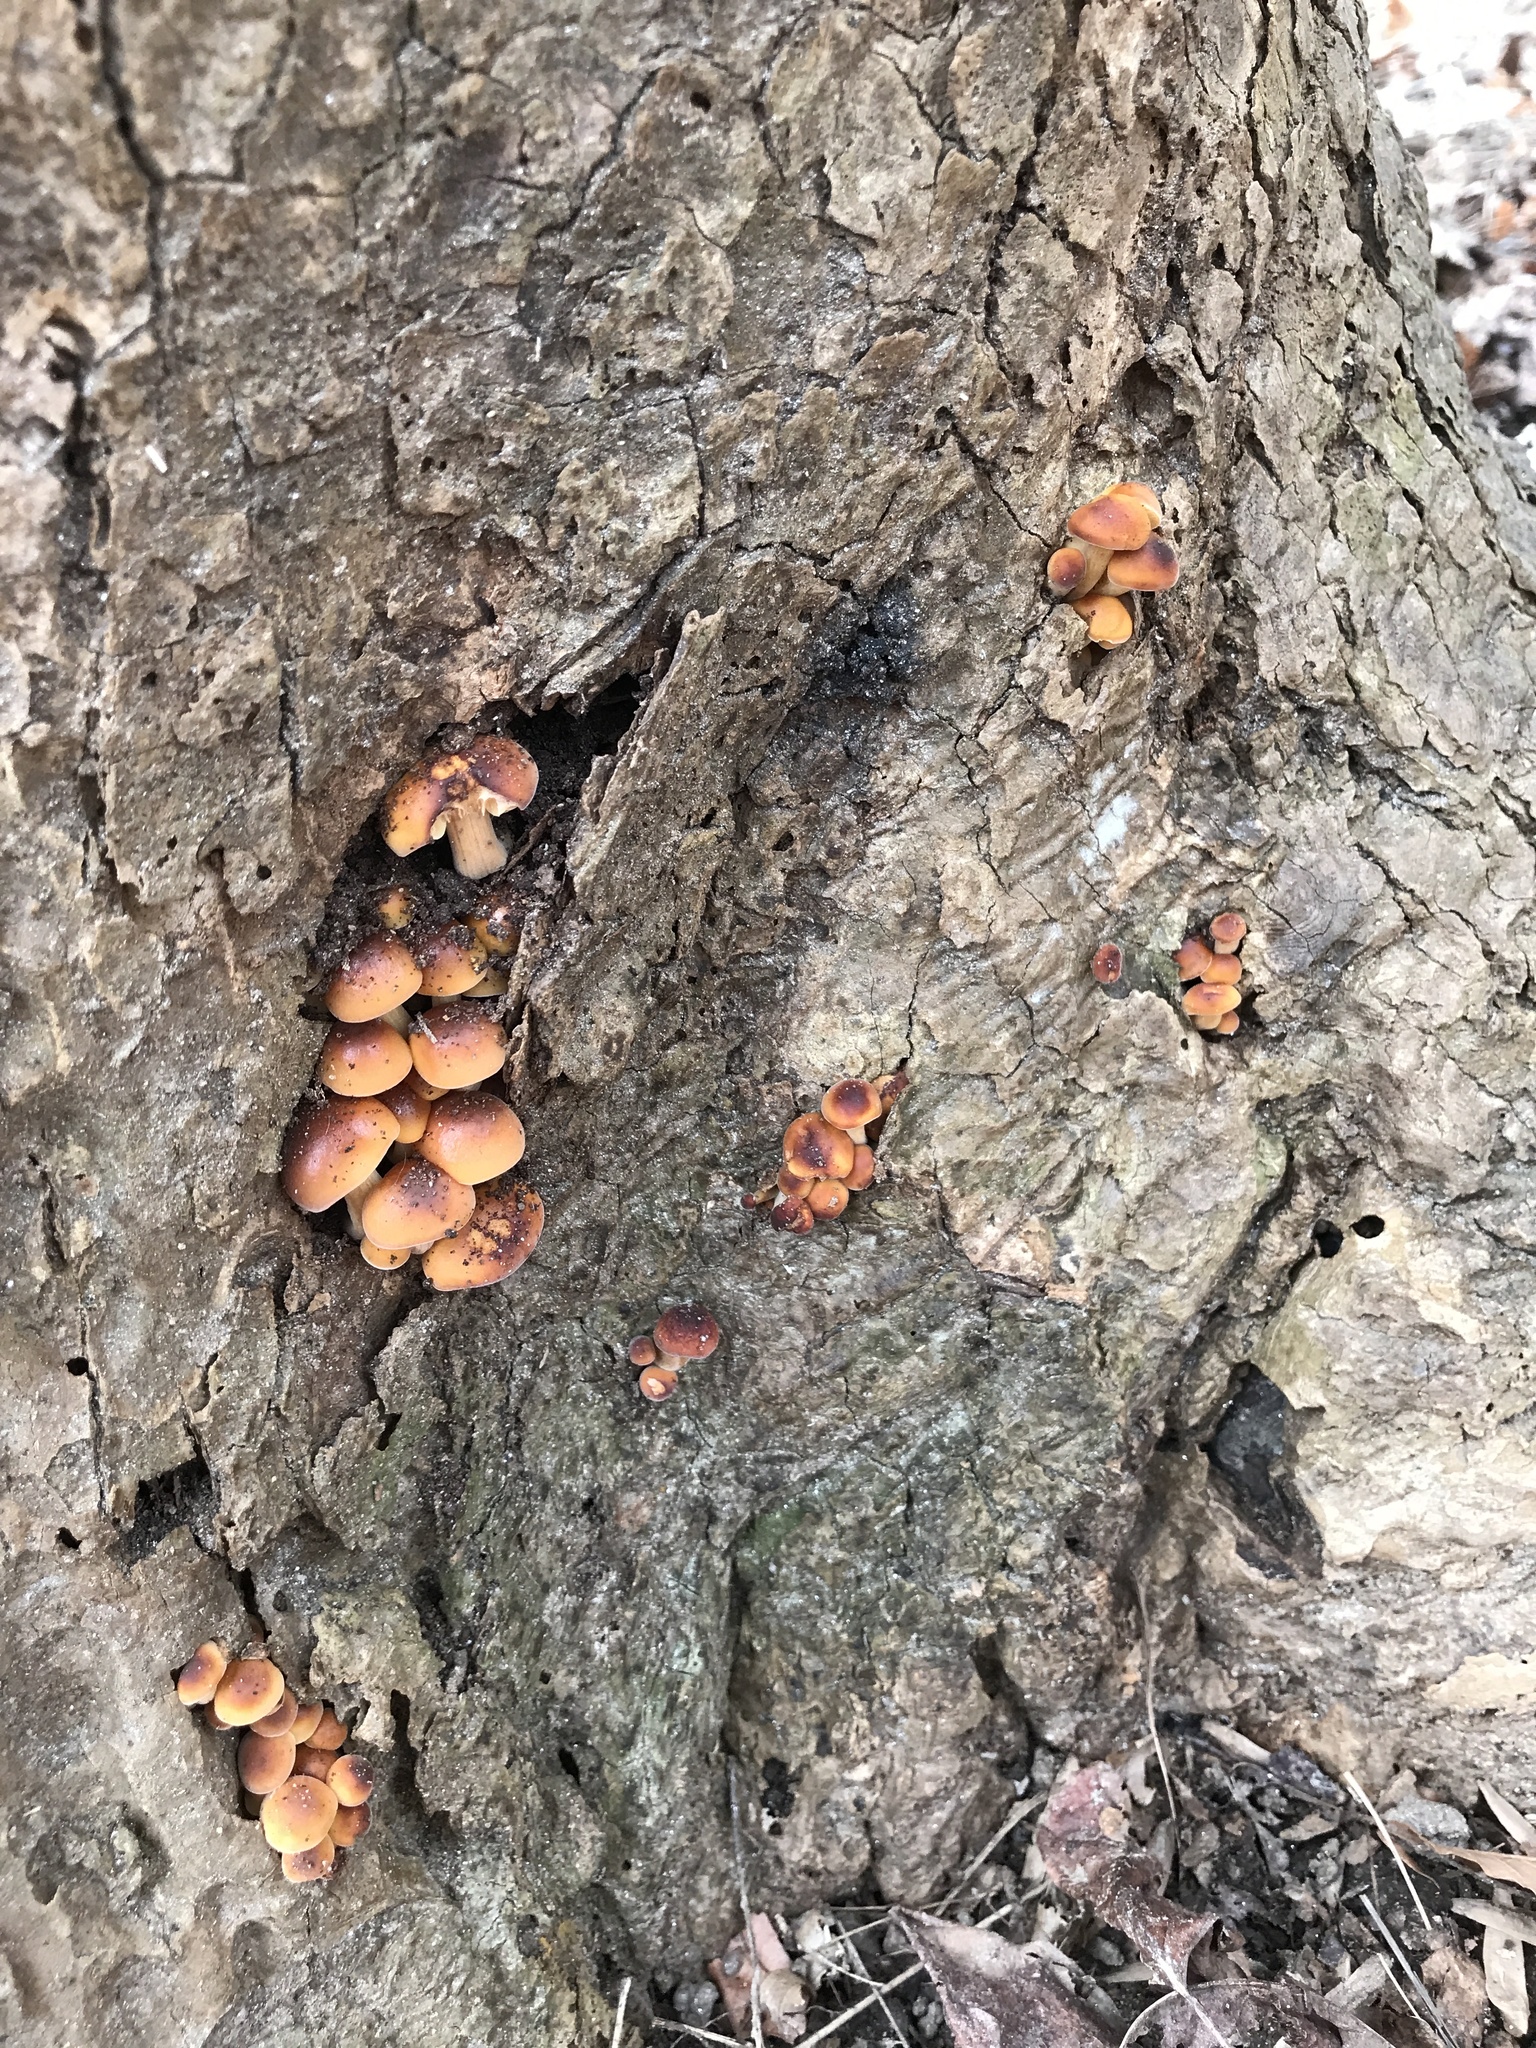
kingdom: Fungi
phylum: Basidiomycota
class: Agaricomycetes
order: Agaricales
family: Physalacriaceae
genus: Flammulina
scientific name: Flammulina velutipes
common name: Velvet shank
